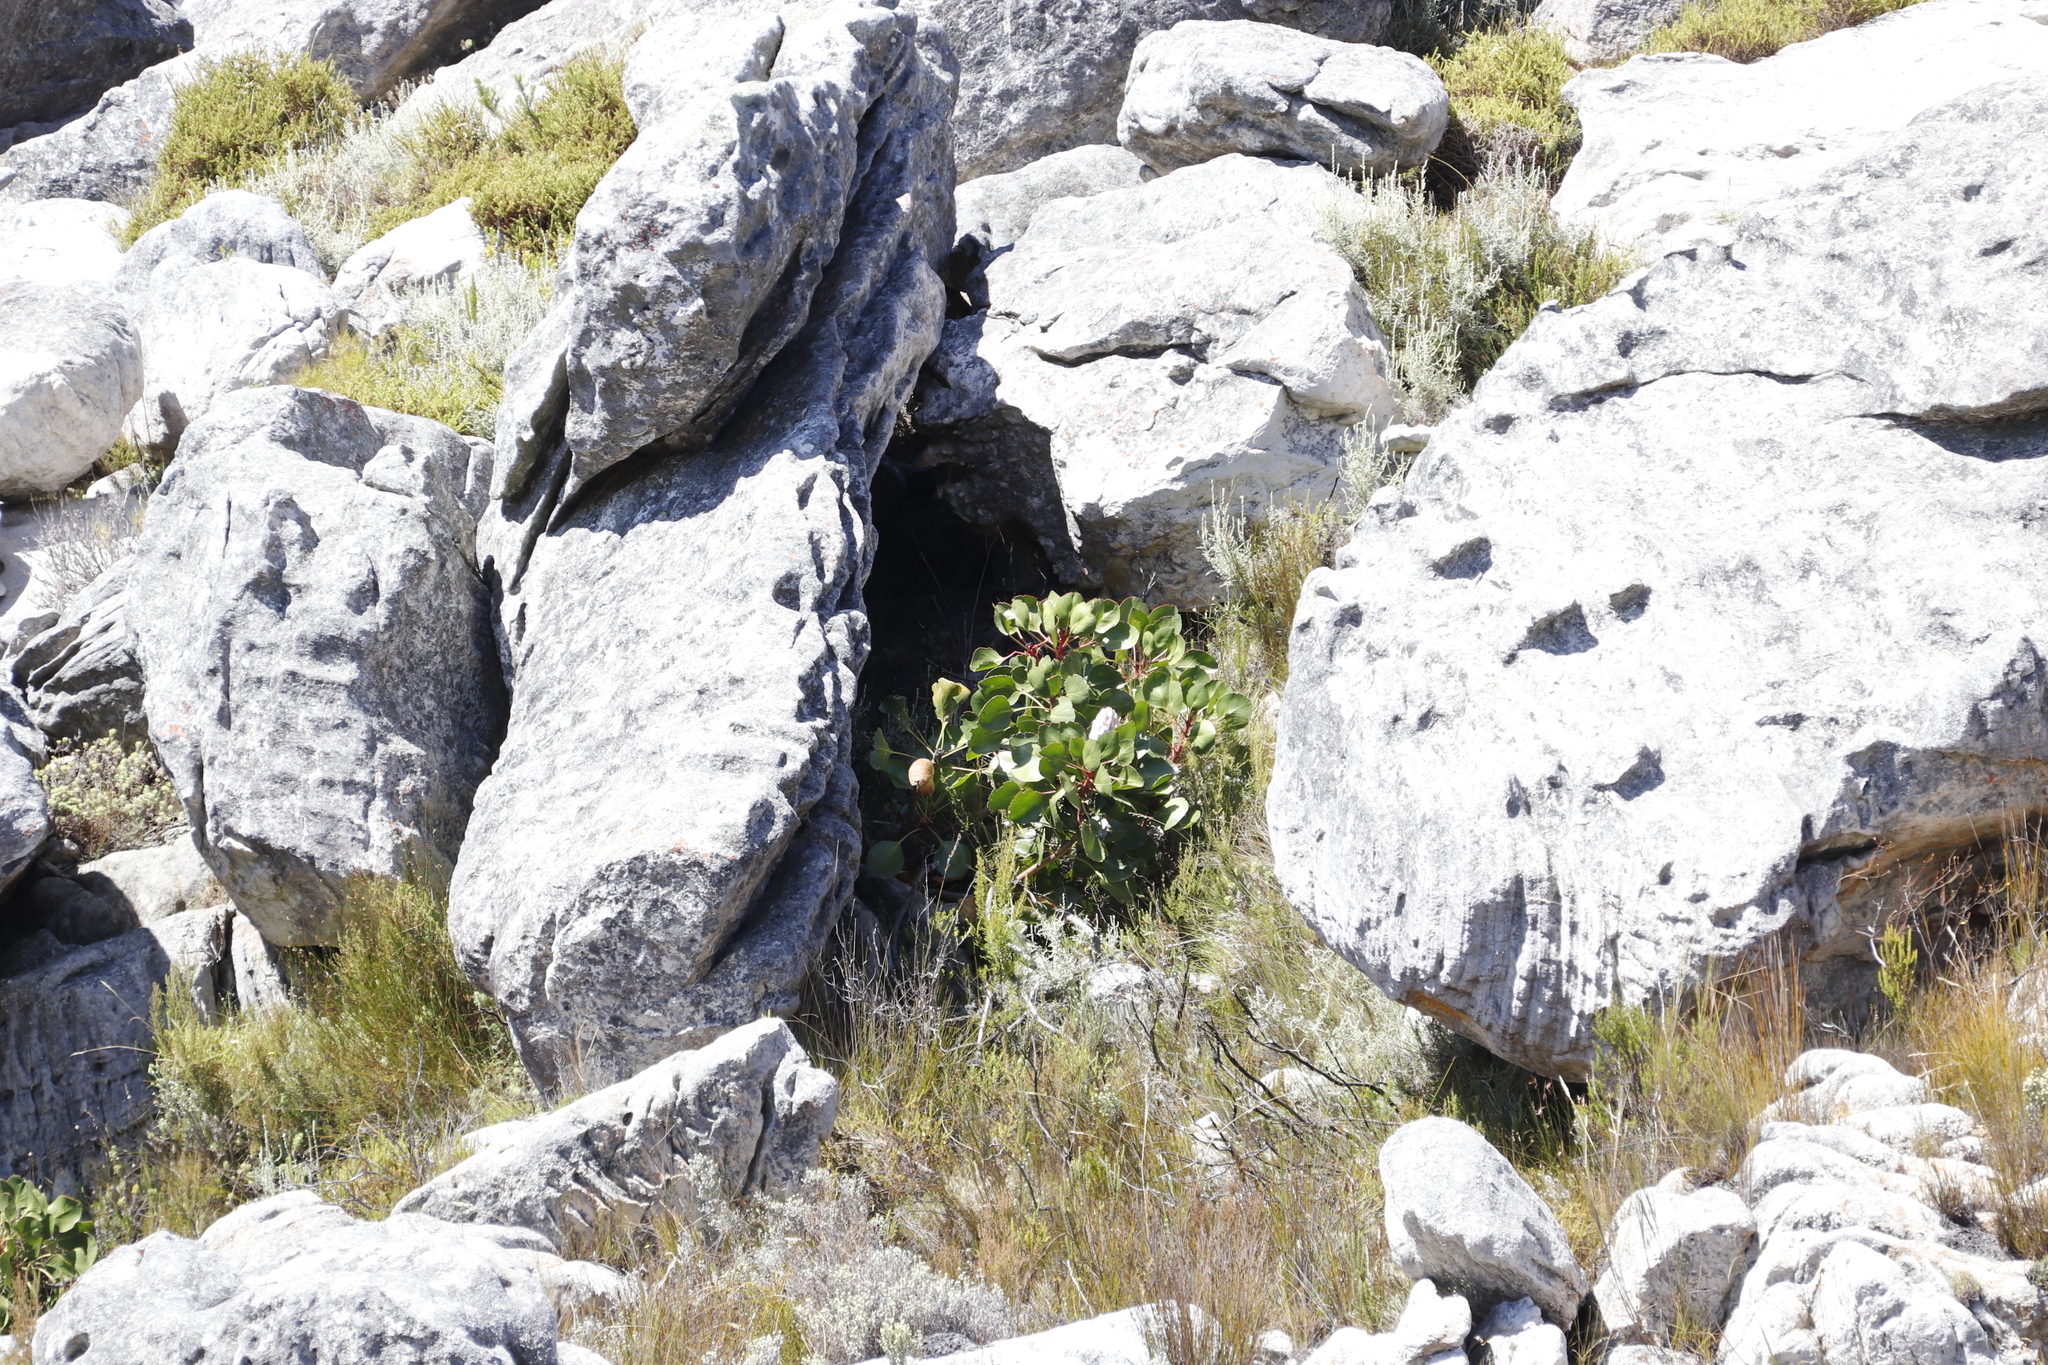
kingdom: Plantae
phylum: Tracheophyta
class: Magnoliopsida
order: Proteales
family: Proteaceae
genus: Protea
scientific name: Protea cynaroides
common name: King protea
